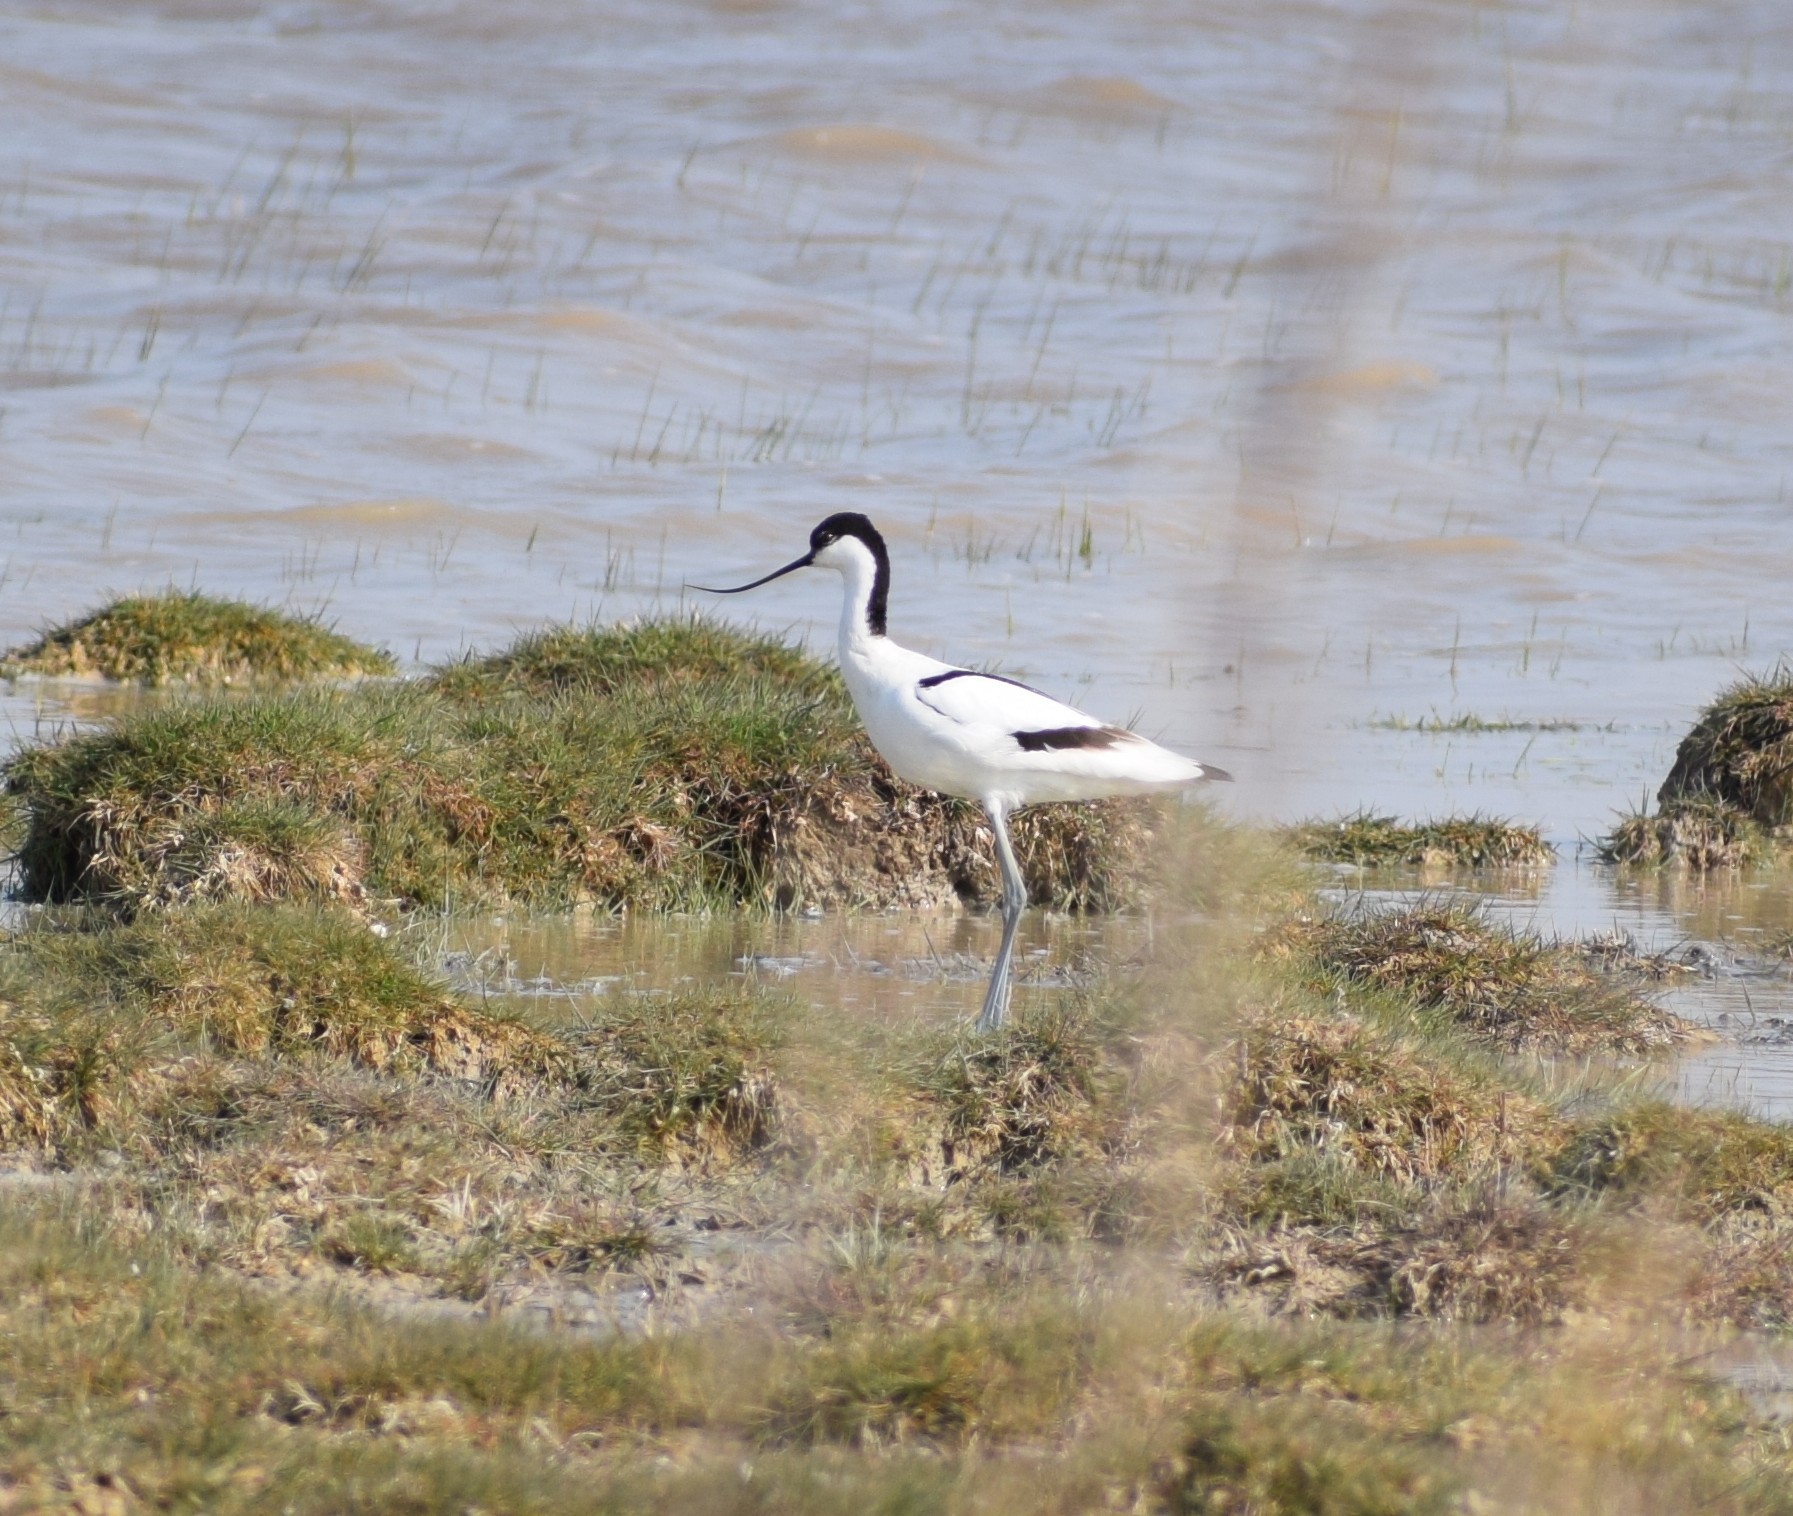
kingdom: Animalia
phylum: Chordata
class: Aves
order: Charadriiformes
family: Recurvirostridae
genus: Recurvirostra
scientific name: Recurvirostra avosetta
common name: Pied avocet
